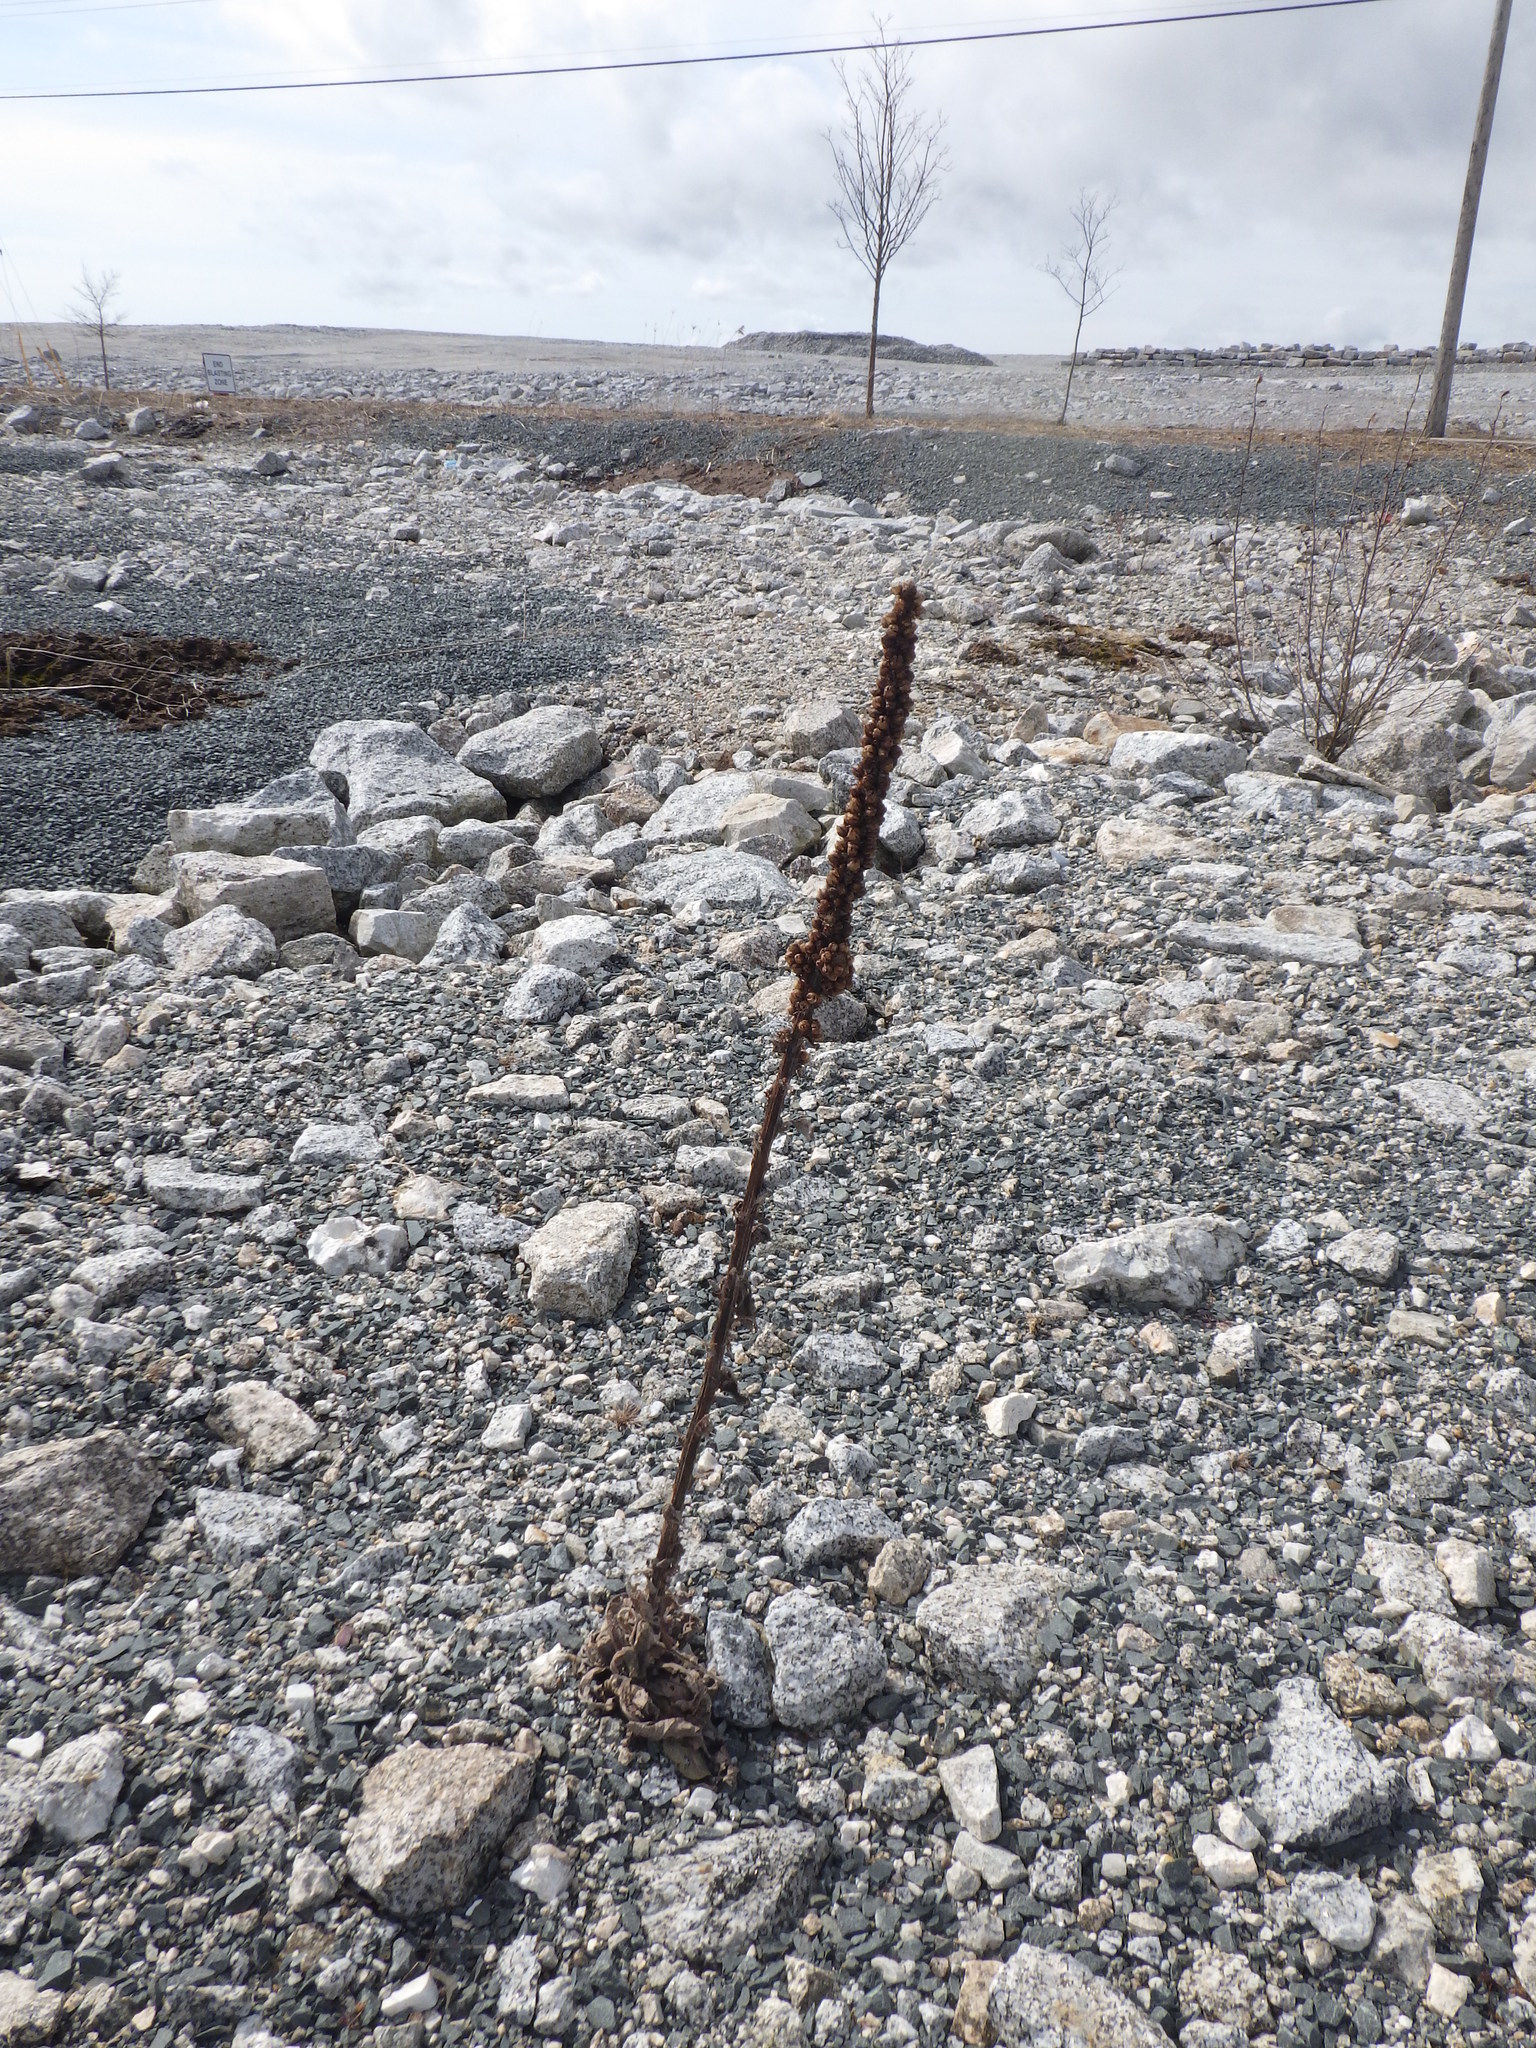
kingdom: Plantae
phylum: Tracheophyta
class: Magnoliopsida
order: Lamiales
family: Scrophulariaceae
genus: Verbascum
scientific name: Verbascum thapsus
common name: Common mullein
